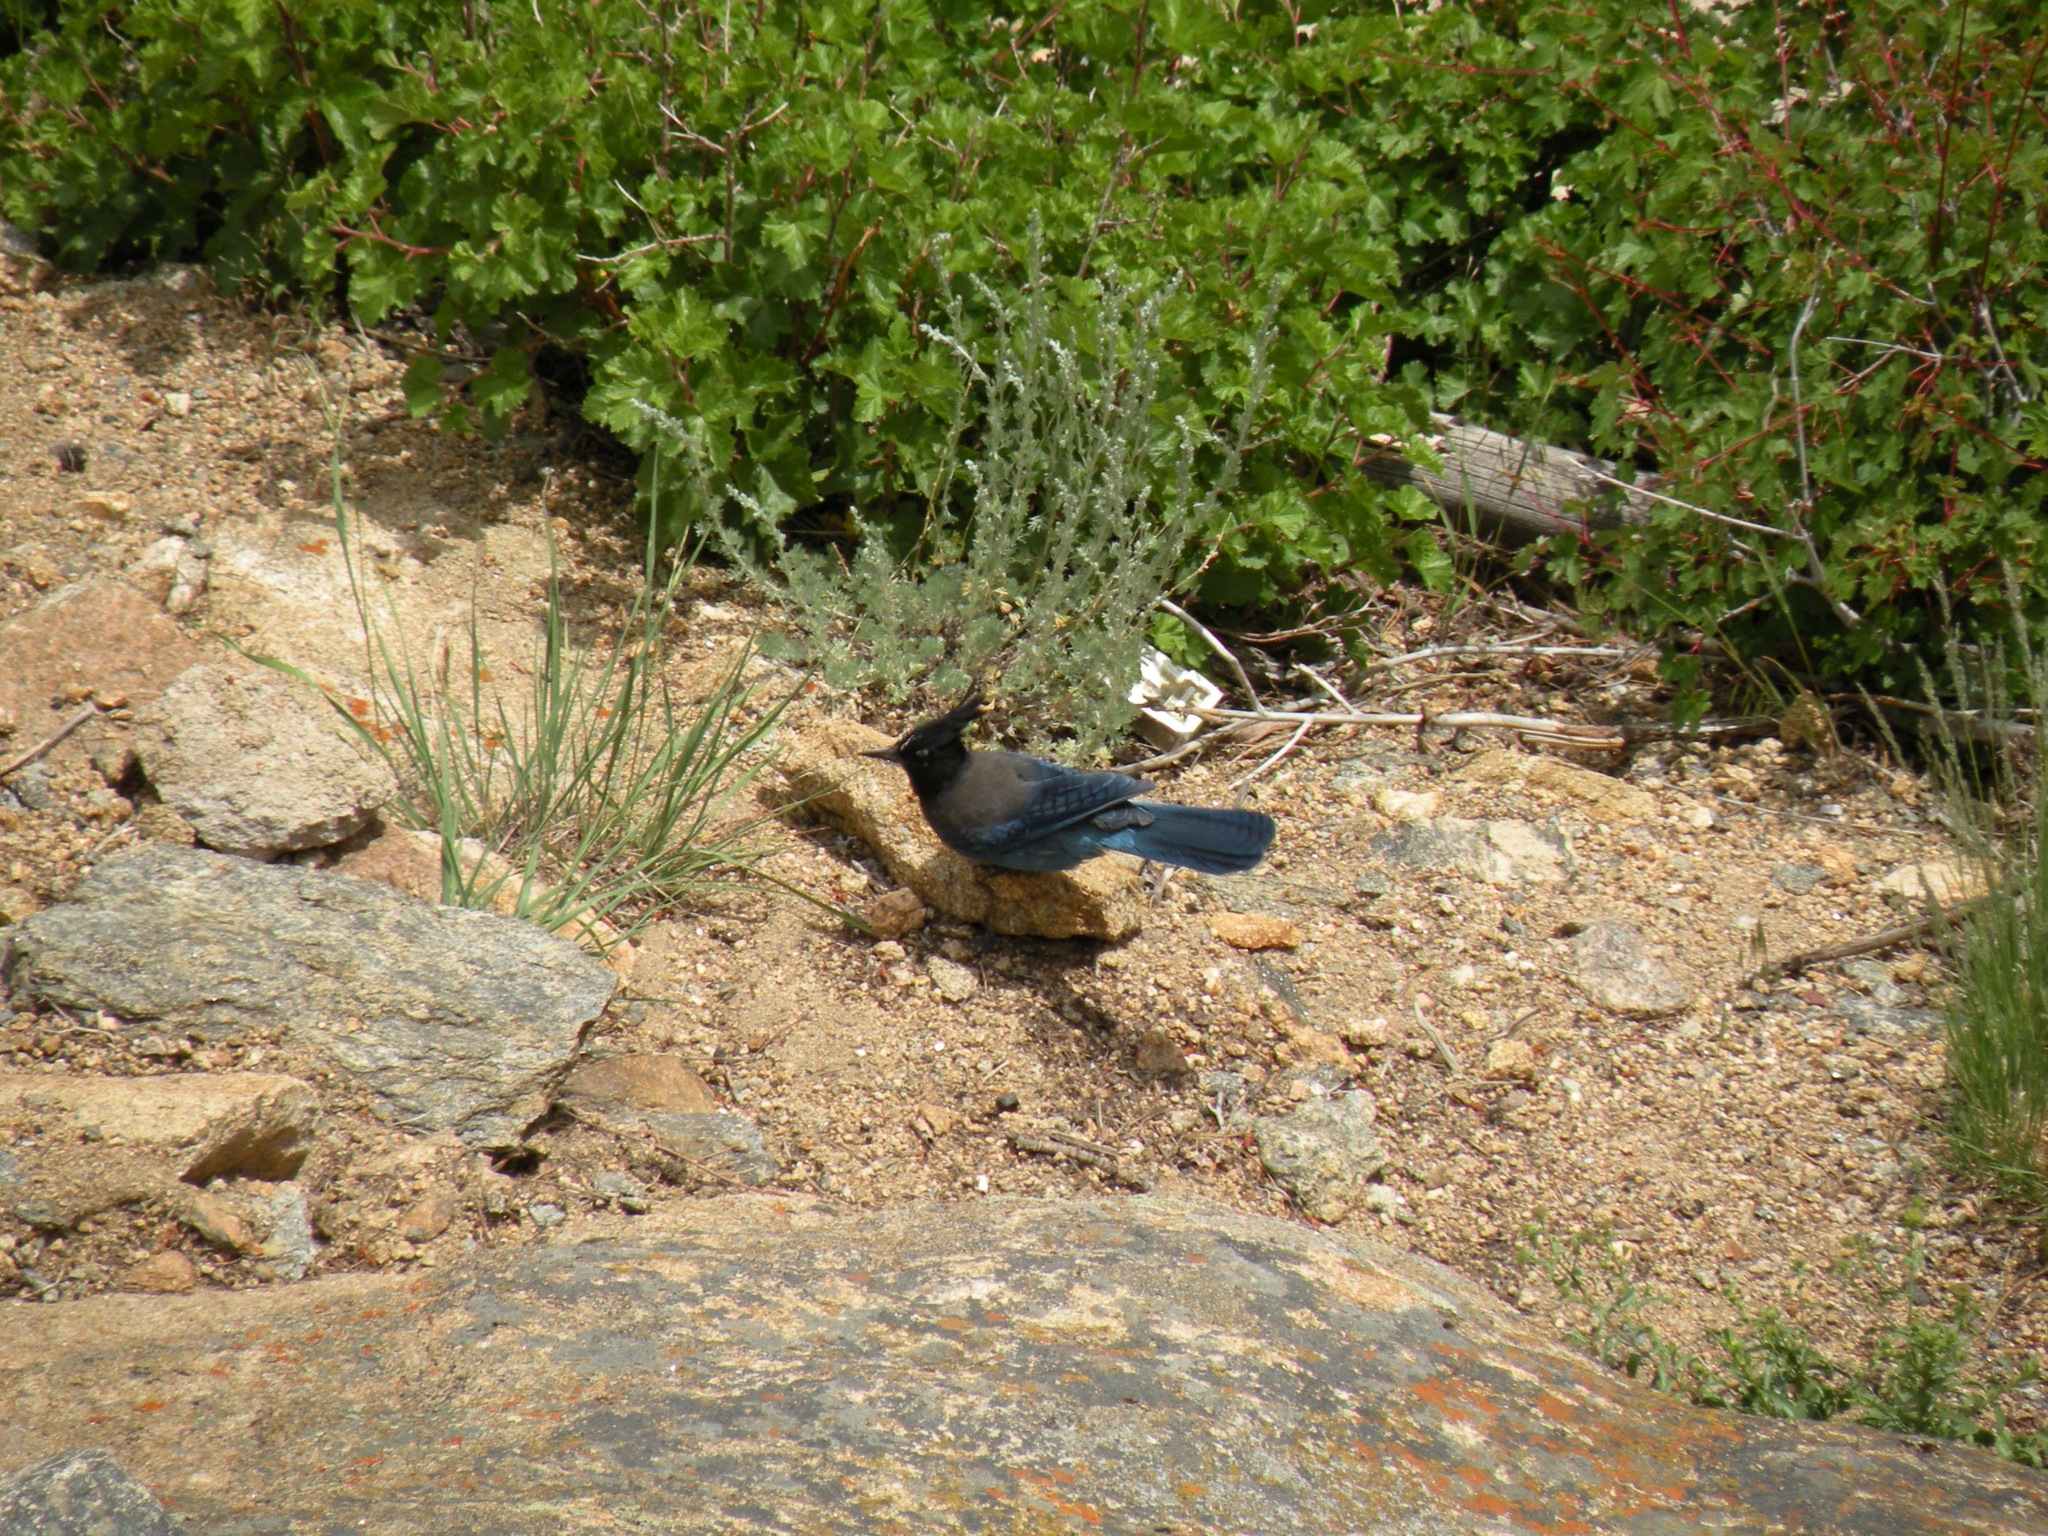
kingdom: Animalia
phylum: Chordata
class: Aves
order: Passeriformes
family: Corvidae
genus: Cyanocitta
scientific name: Cyanocitta stelleri
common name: Steller's jay
